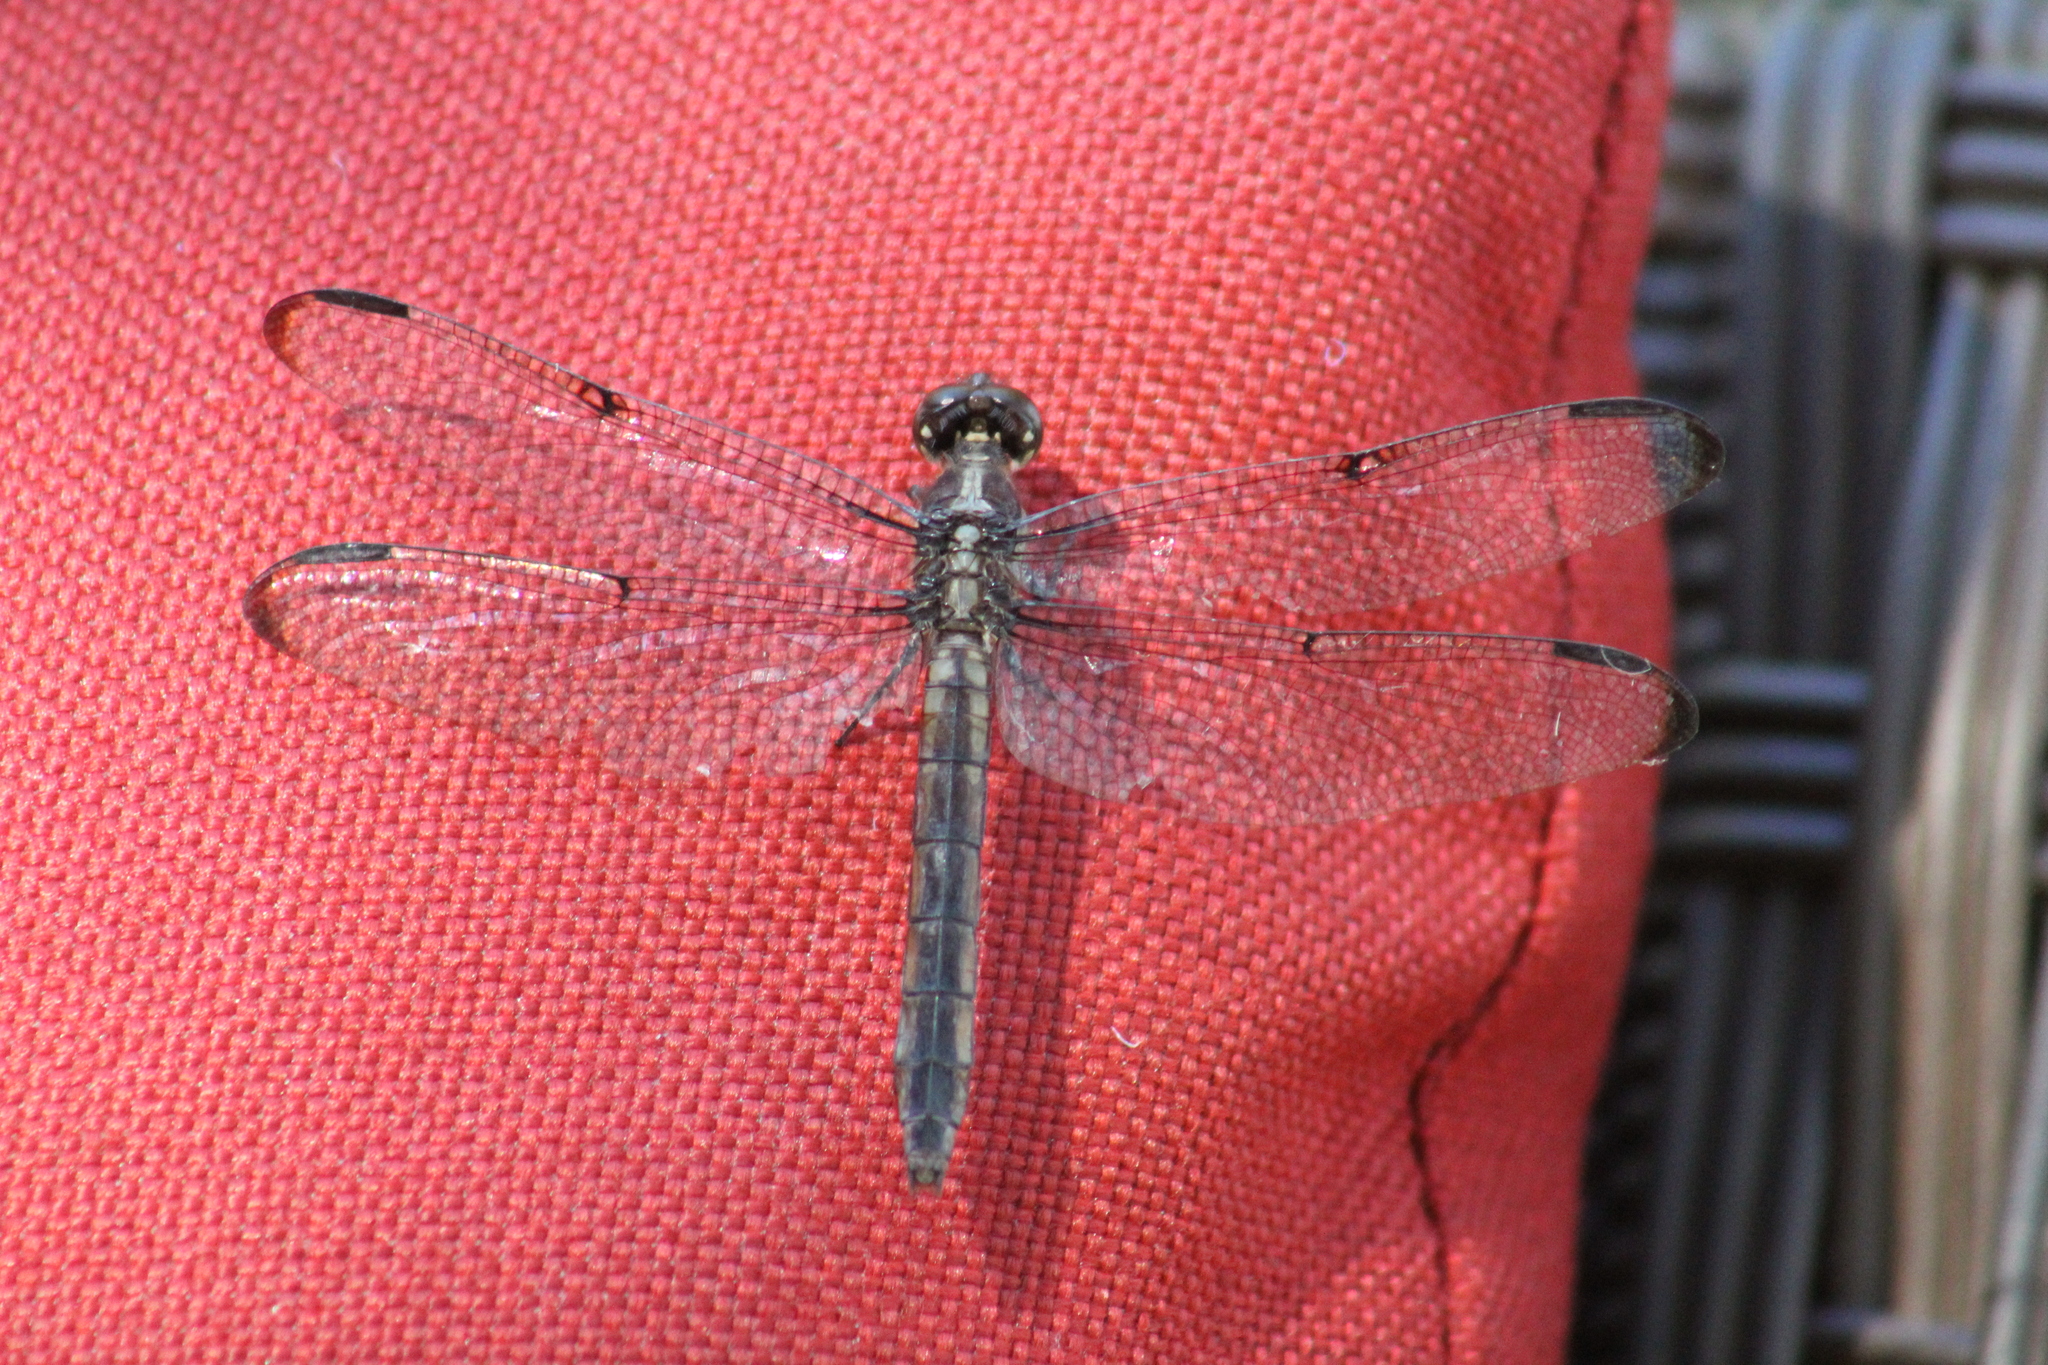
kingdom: Animalia
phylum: Arthropoda
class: Insecta
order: Odonata
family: Libellulidae
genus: Libellula
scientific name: Libellula incesta
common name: Slaty skimmer
